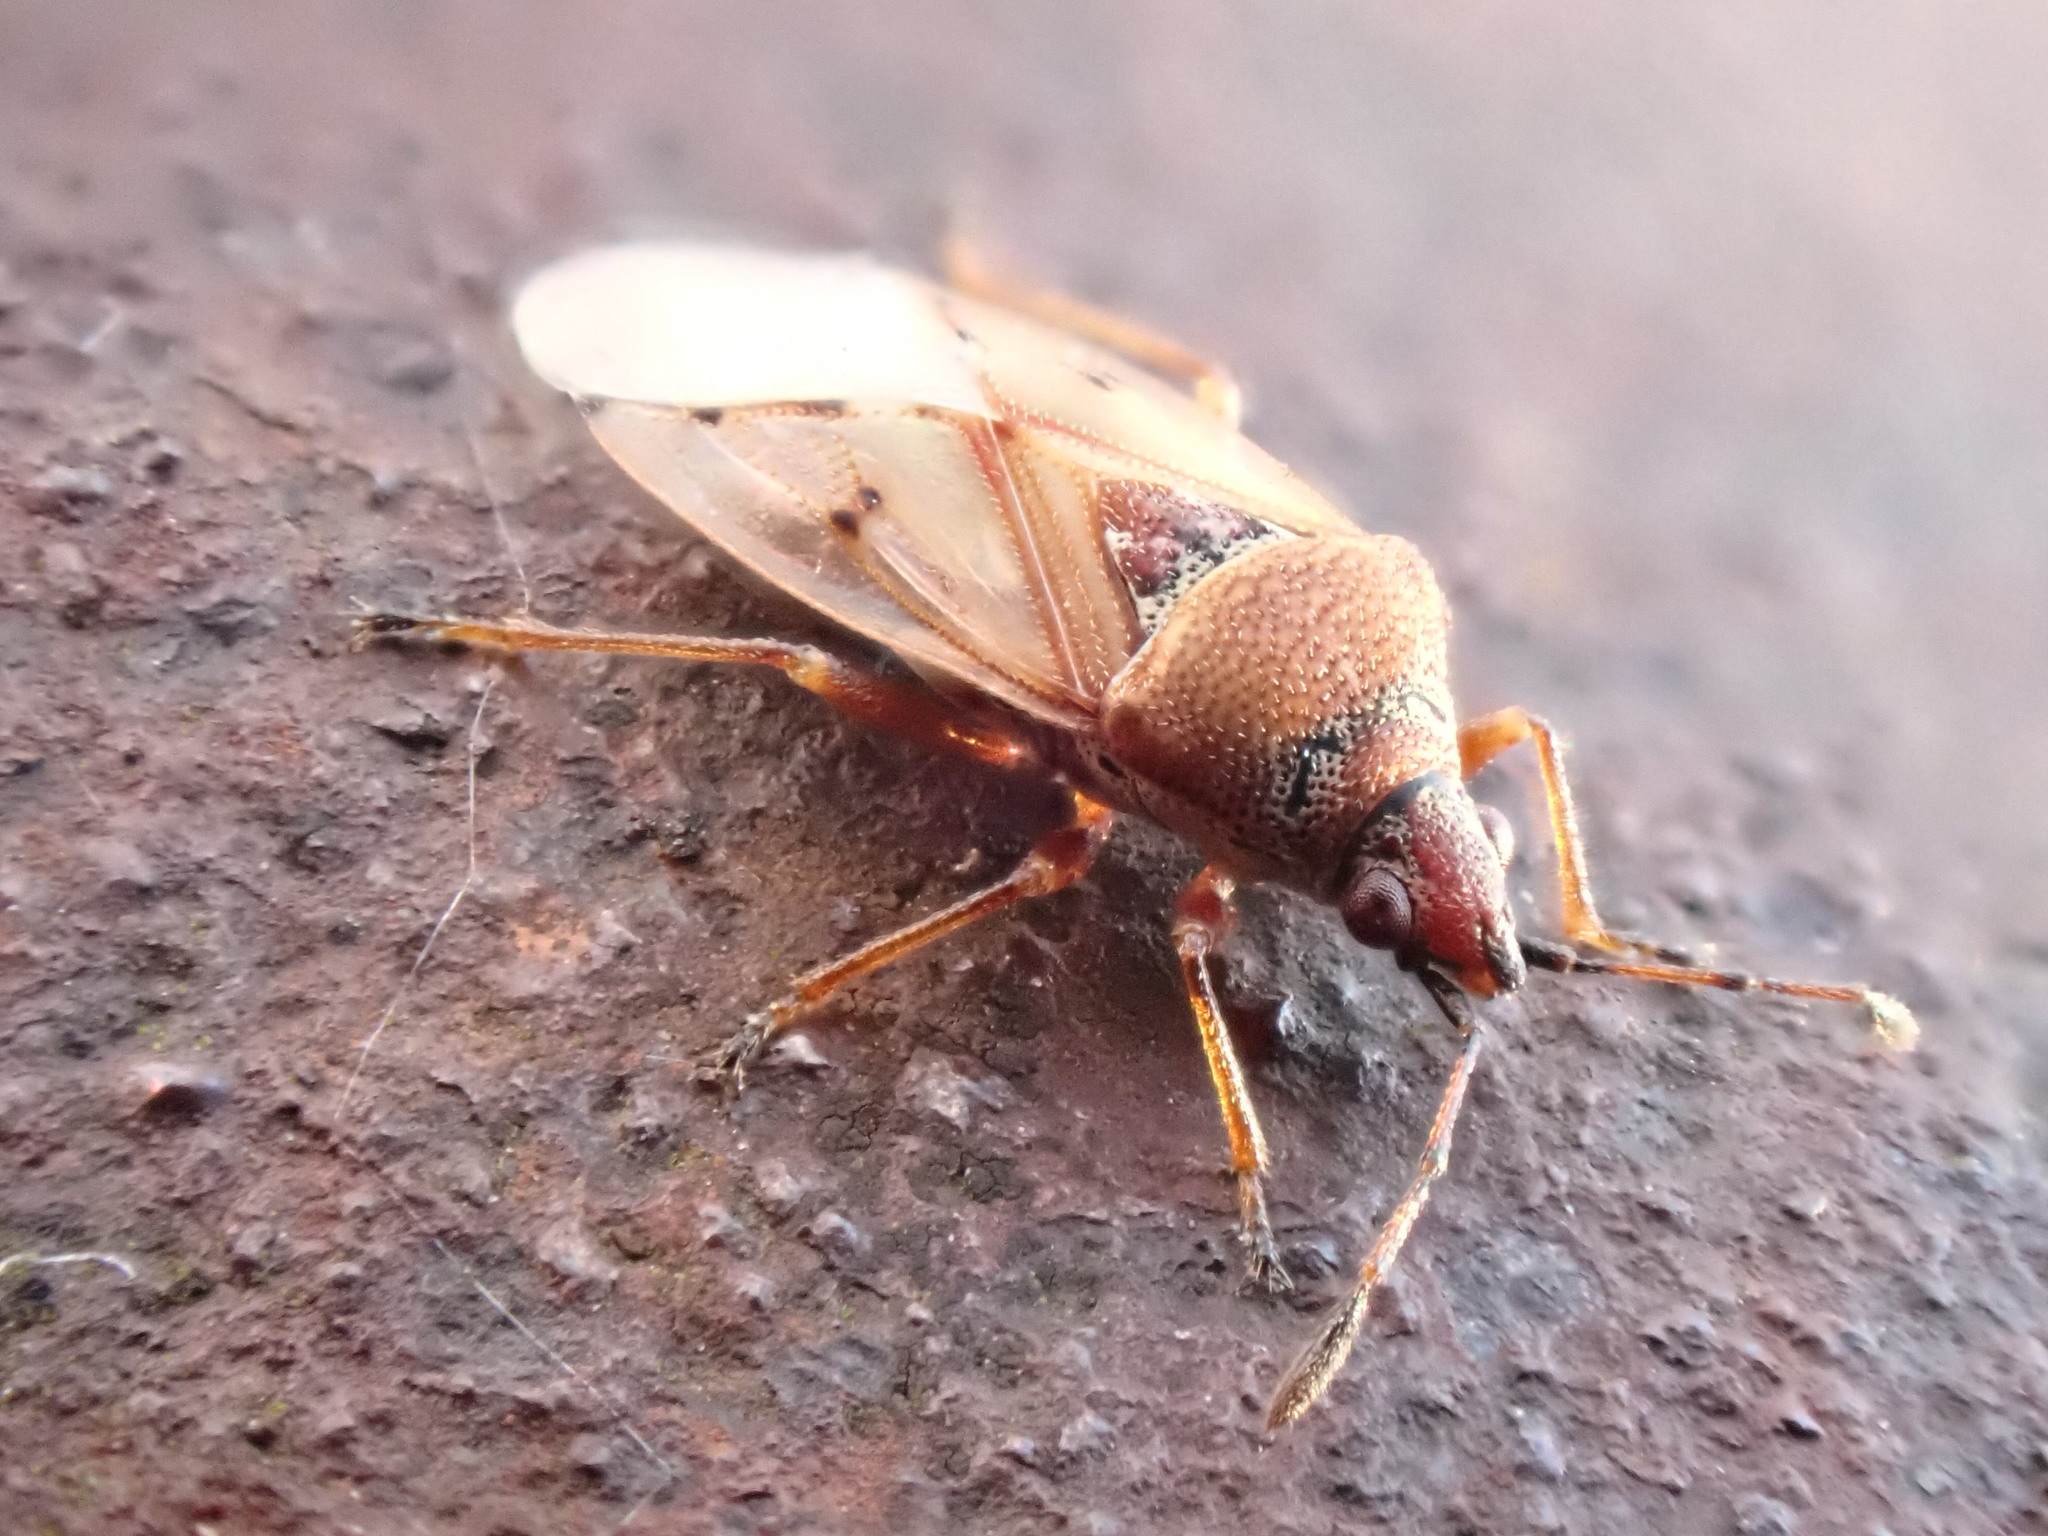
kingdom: Animalia
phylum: Arthropoda
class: Insecta
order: Hemiptera
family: Lygaeidae
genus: Kleidocerys
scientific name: Kleidocerys resedae
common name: Birch catkin bug
